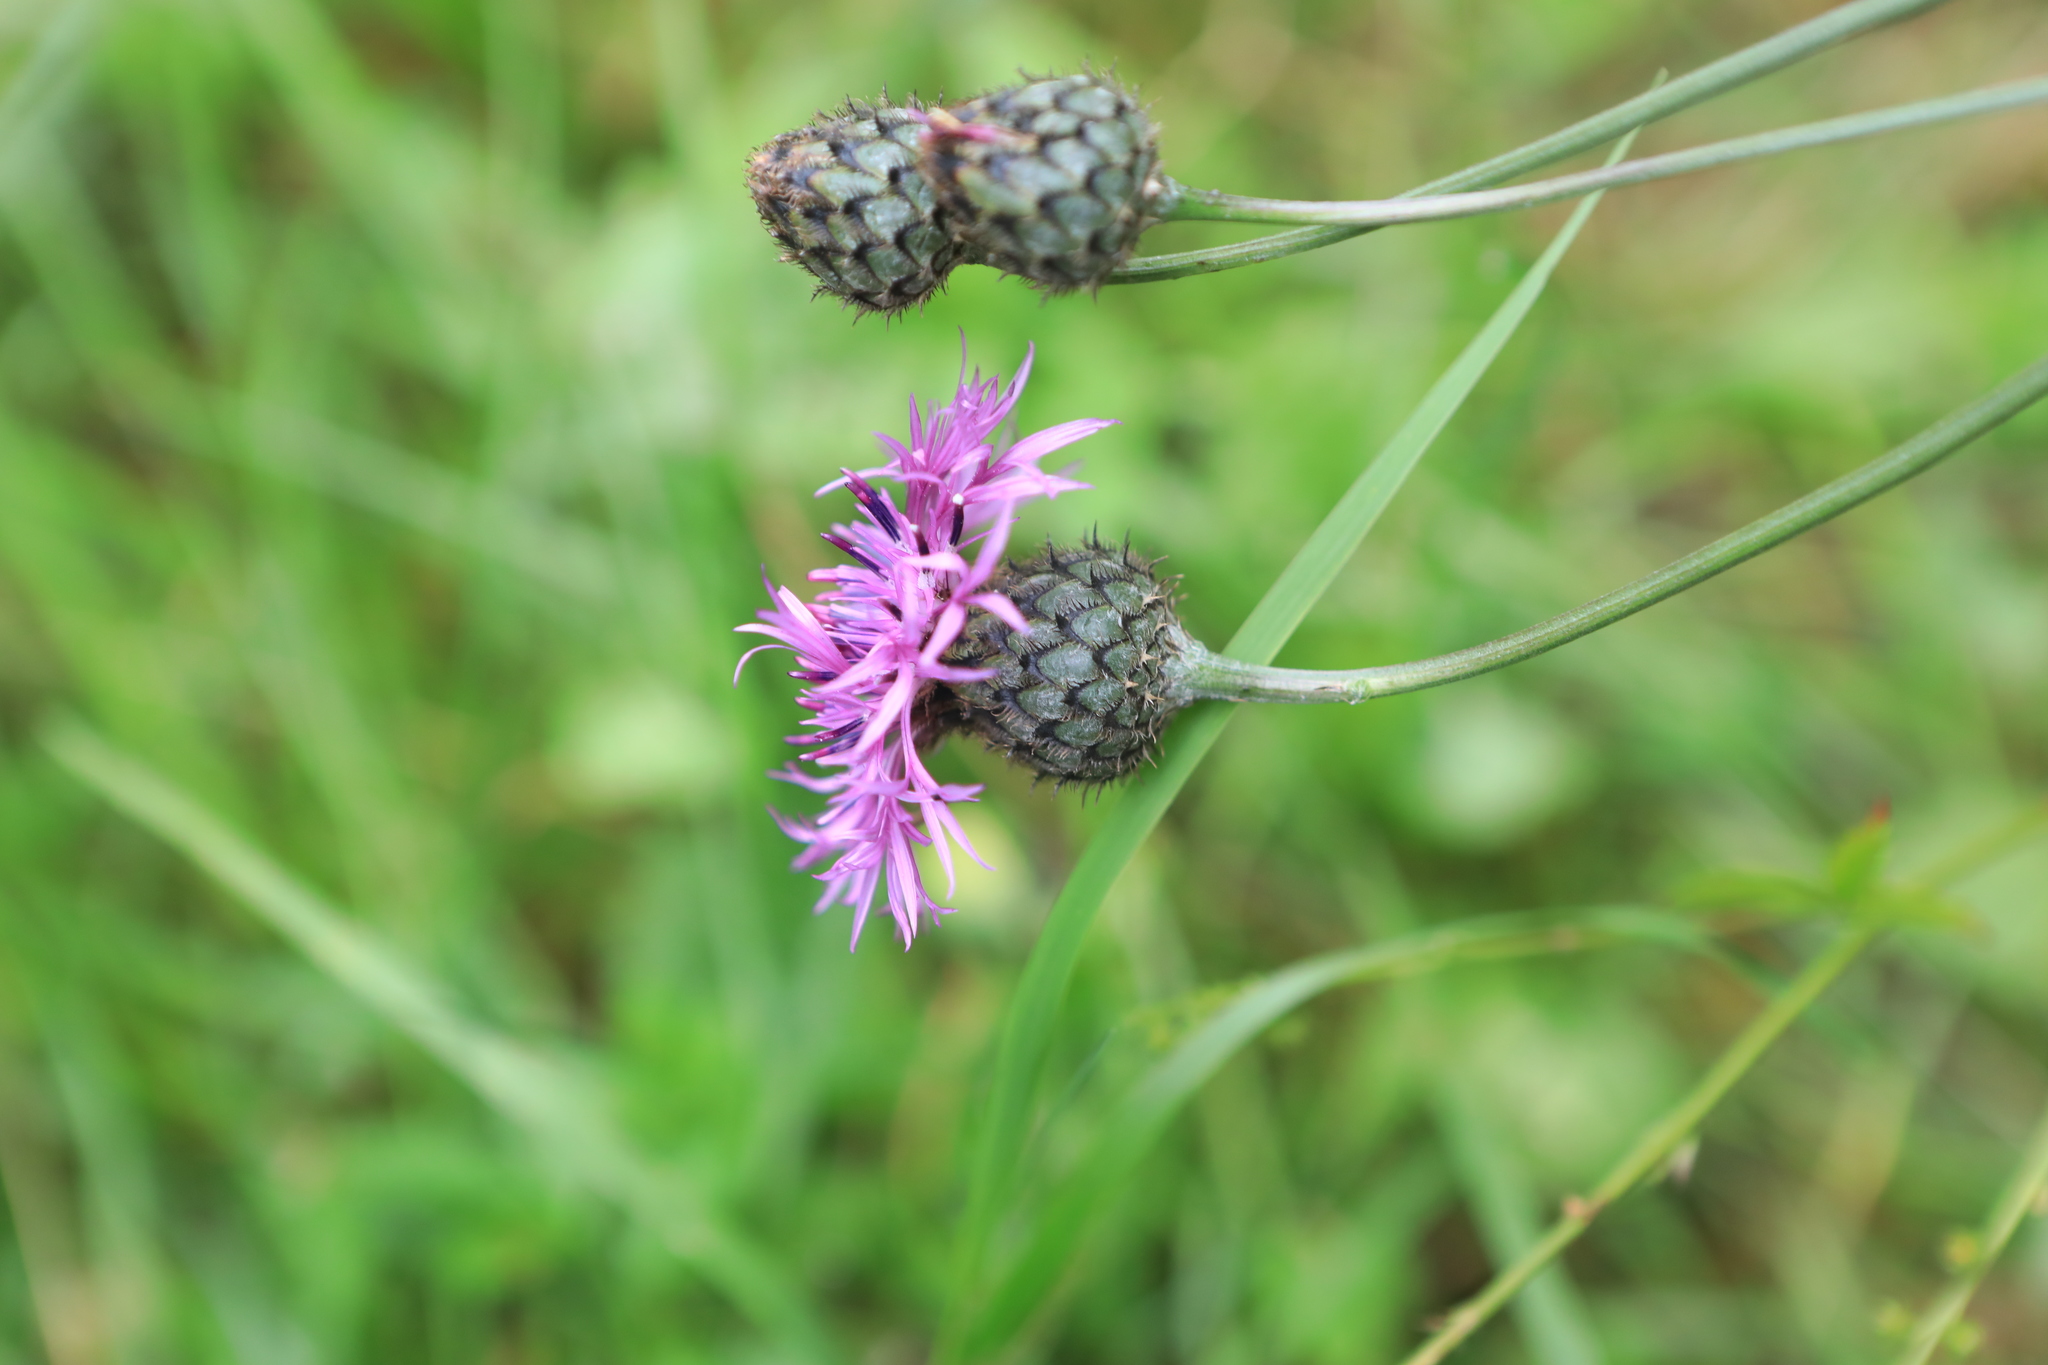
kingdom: Plantae
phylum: Tracheophyta
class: Magnoliopsida
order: Asterales
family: Asteraceae
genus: Centaurea
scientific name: Centaurea scabiosa
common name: Greater knapweed
